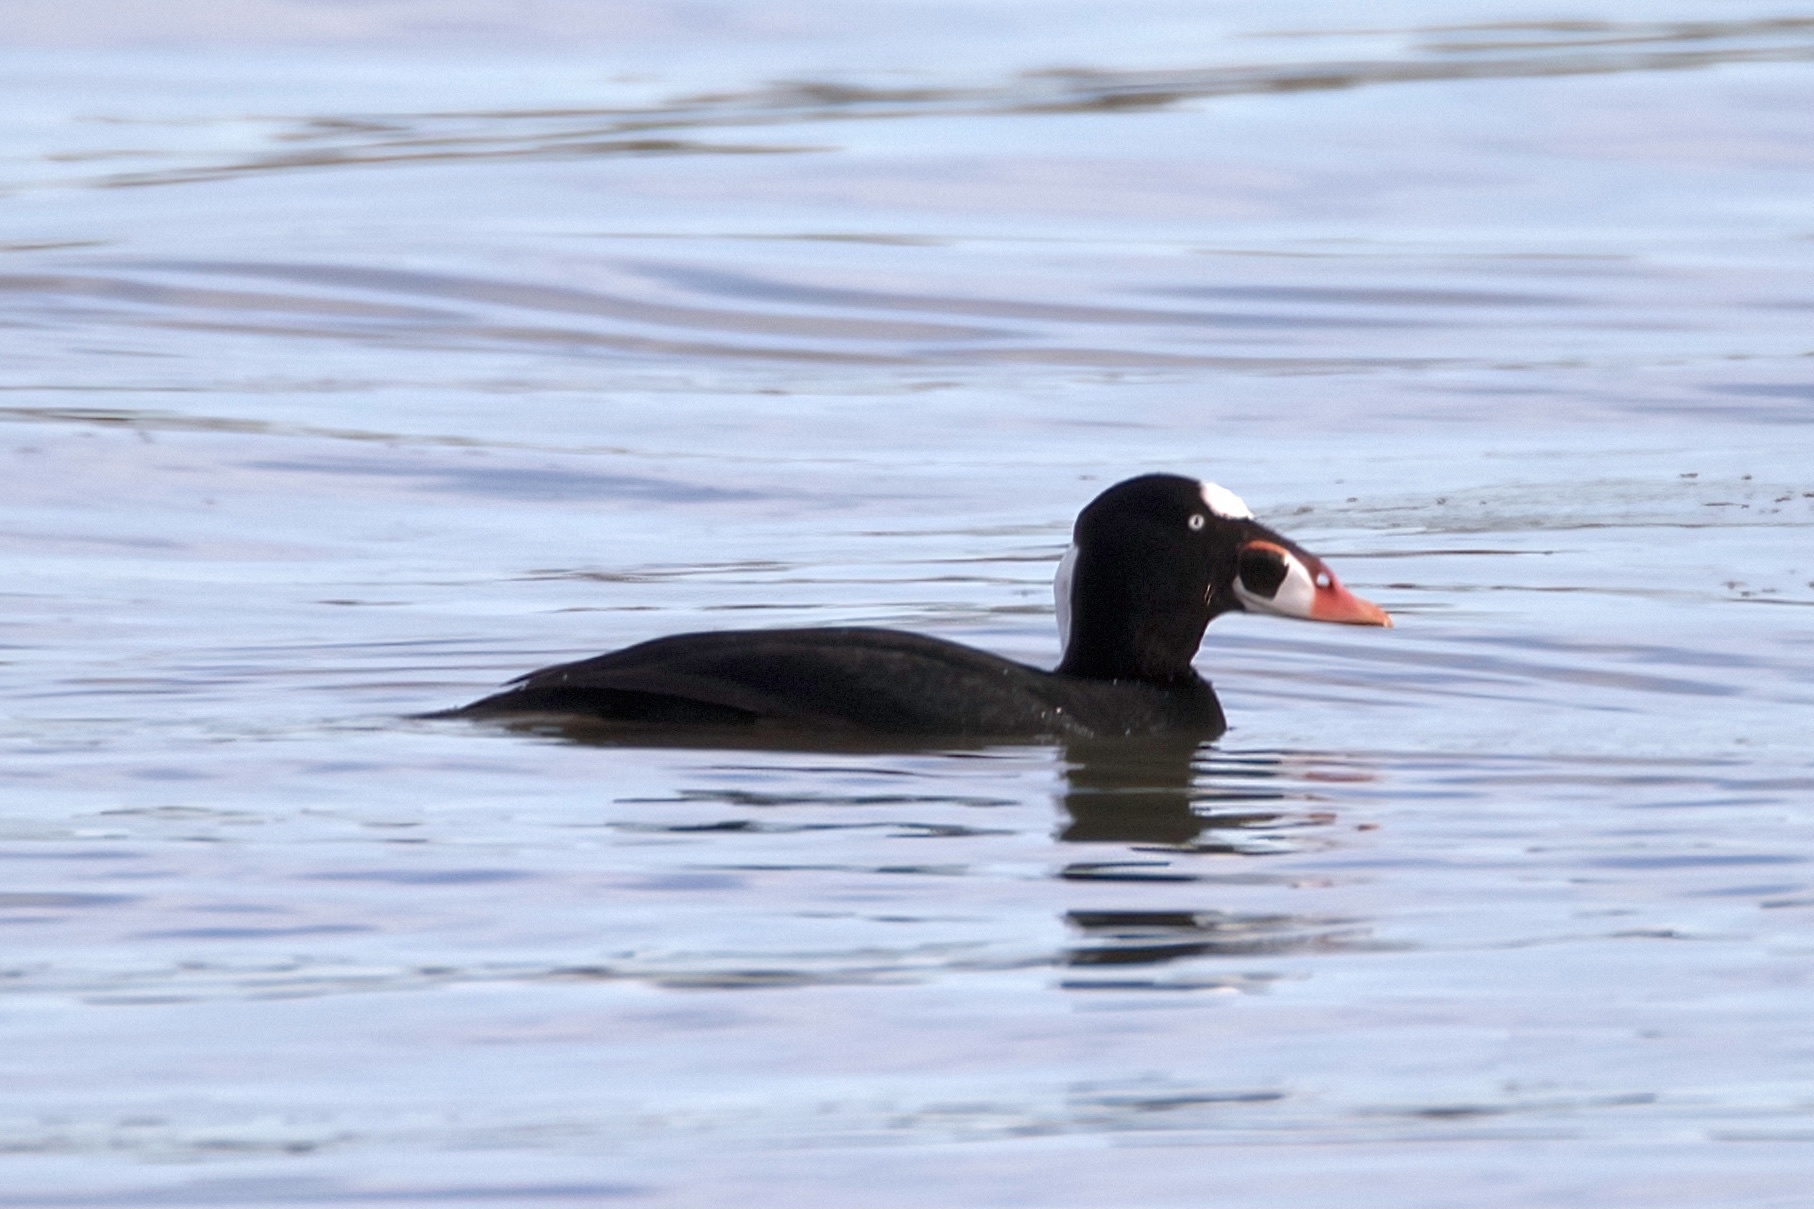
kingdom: Animalia
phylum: Chordata
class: Aves
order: Anseriformes
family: Anatidae
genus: Melanitta
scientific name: Melanitta perspicillata
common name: Surf scoter
